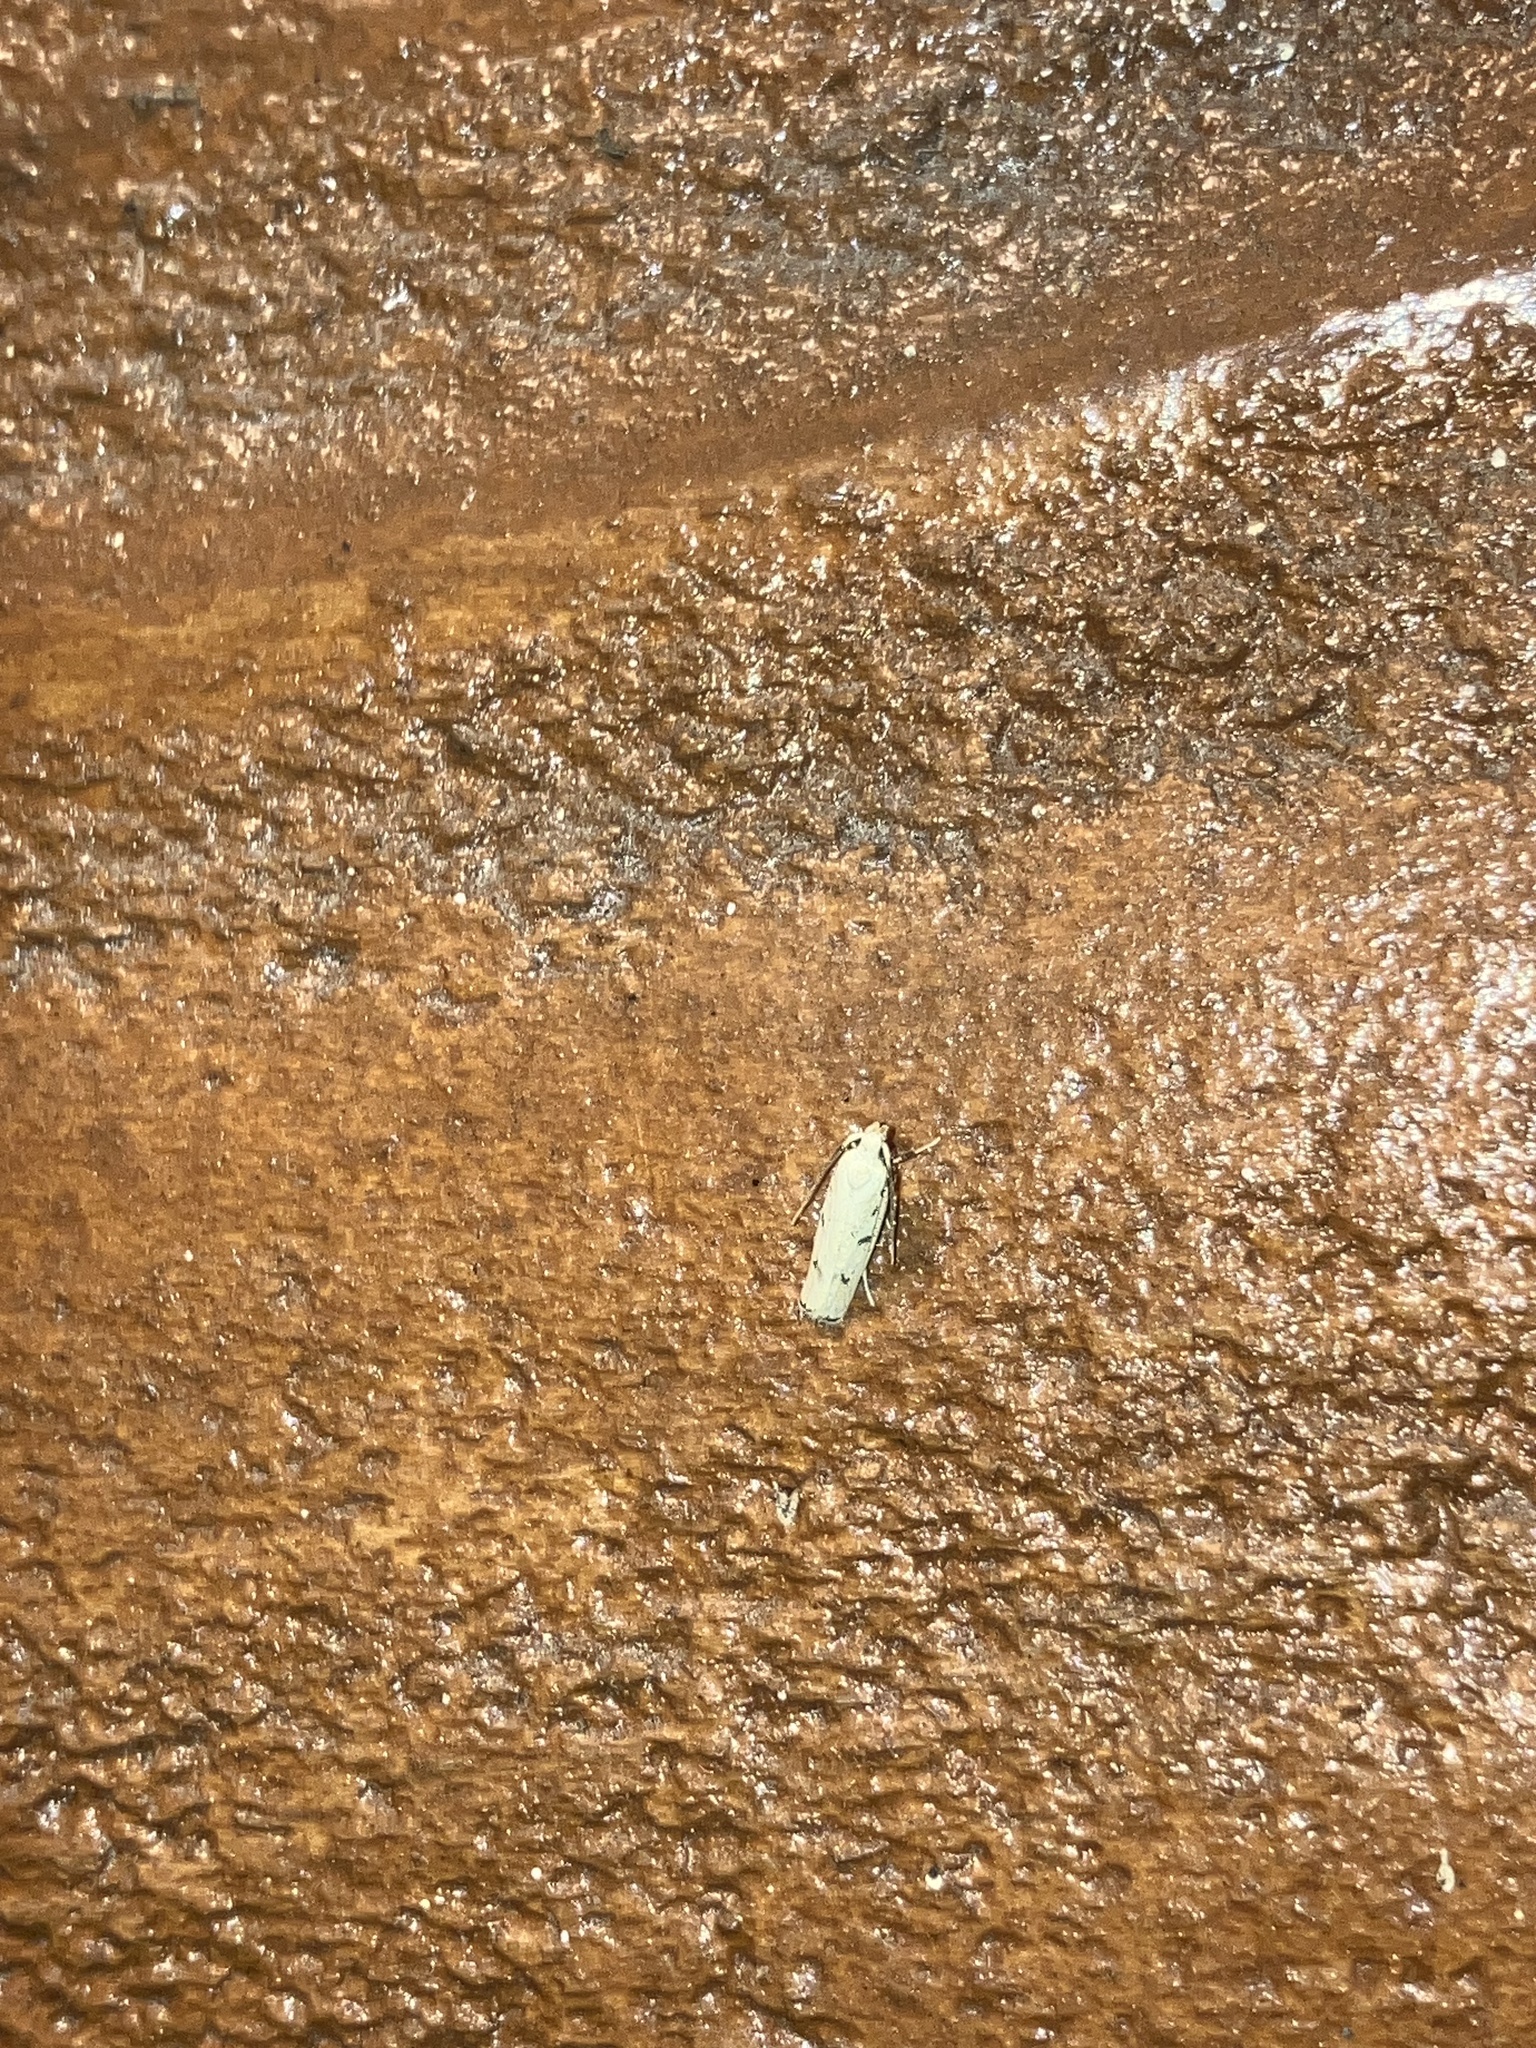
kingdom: Animalia
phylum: Arthropoda
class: Insecta
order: Lepidoptera
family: Autostichidae
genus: Glyphidocera
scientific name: Glyphidocera lactiflosella
